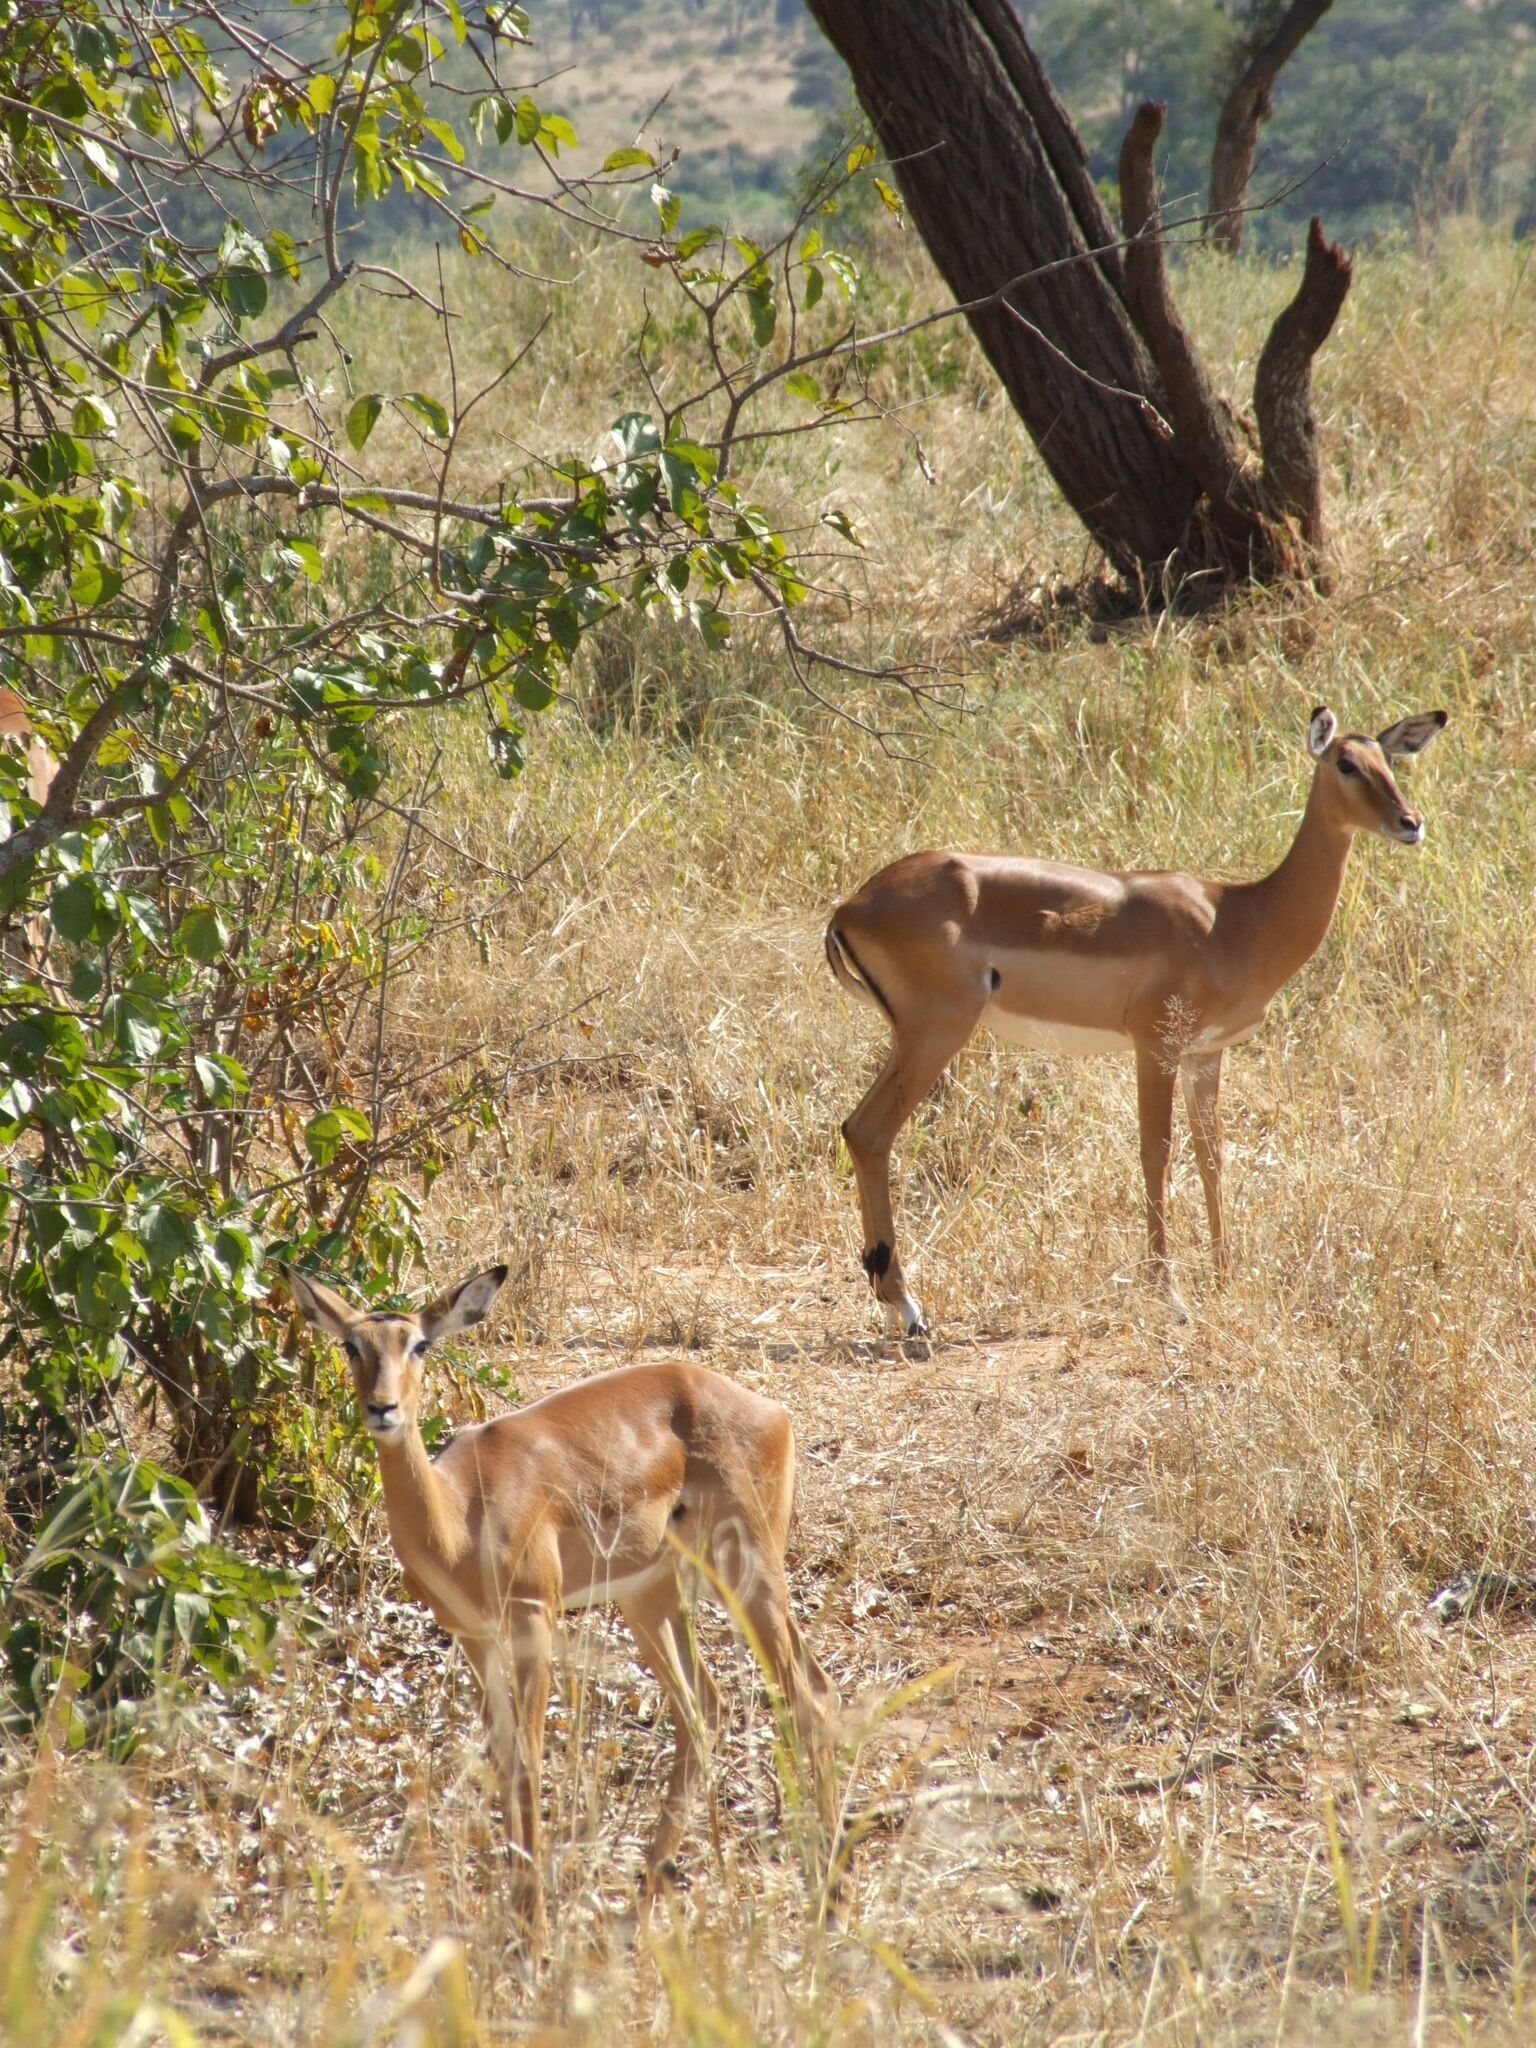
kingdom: Animalia
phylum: Chordata
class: Mammalia
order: Artiodactyla
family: Bovidae
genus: Aepyceros
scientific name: Aepyceros melampus
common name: Impala
